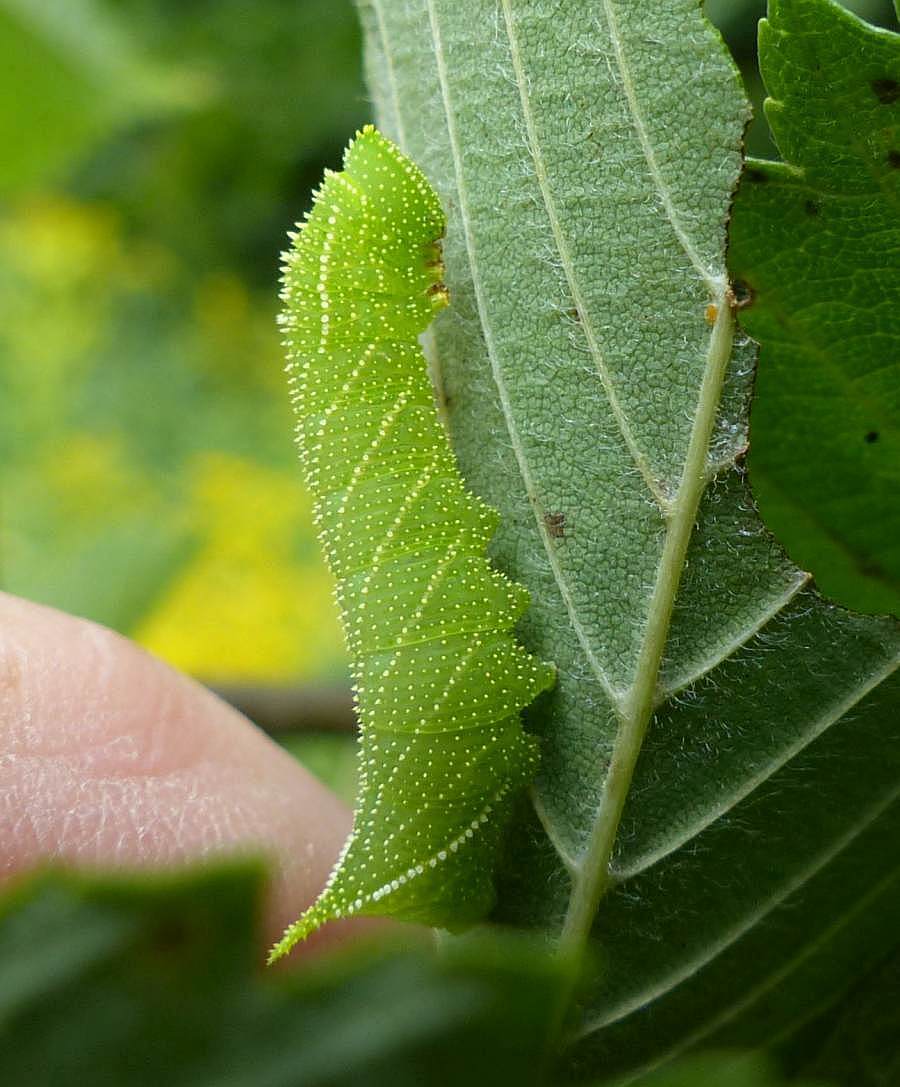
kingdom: Animalia
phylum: Arthropoda
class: Insecta
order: Lepidoptera
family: Sphingidae
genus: Paonias
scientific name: Paonias excaecata
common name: Blind-eyed sphinx
